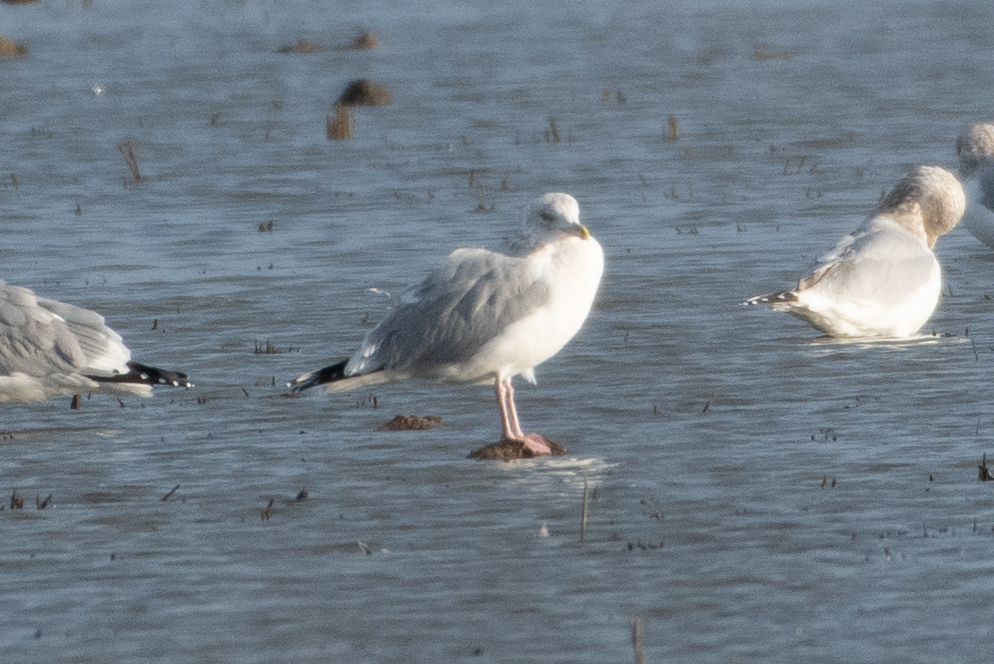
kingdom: Animalia
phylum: Chordata
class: Aves
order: Charadriiformes
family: Laridae
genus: Larus
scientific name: Larus argentatus
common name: Herring gull
